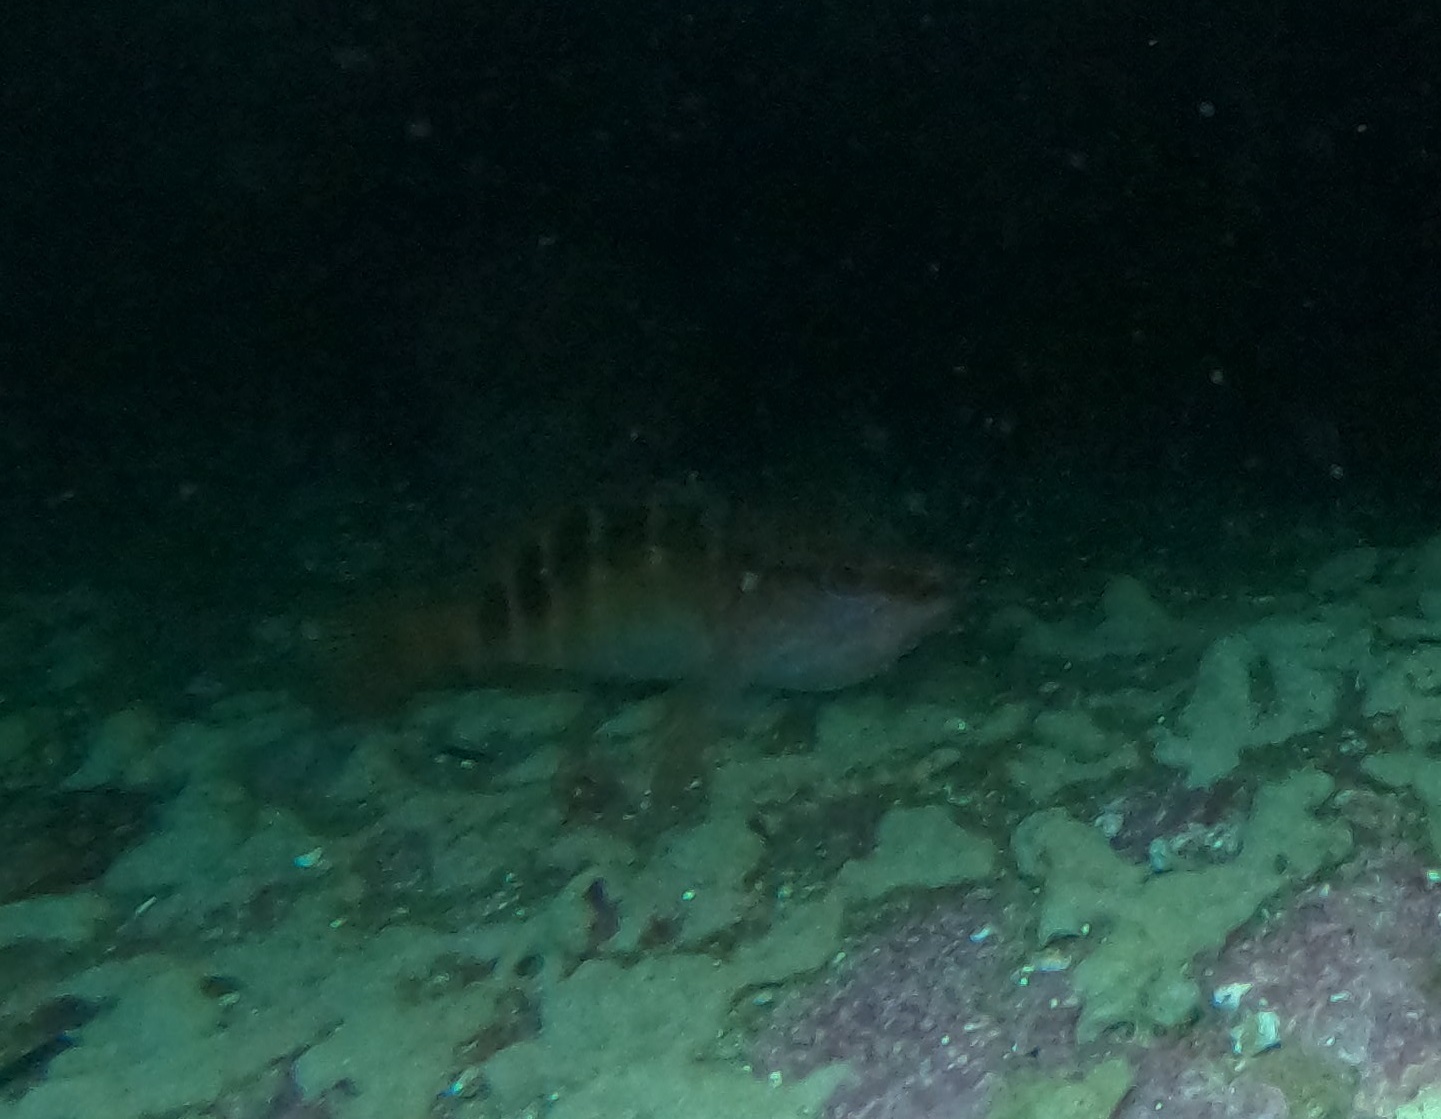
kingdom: Animalia
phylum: Chordata
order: Perciformes
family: Serranidae
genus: Hypoplectrodes
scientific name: Hypoplectrodes maccullochi
